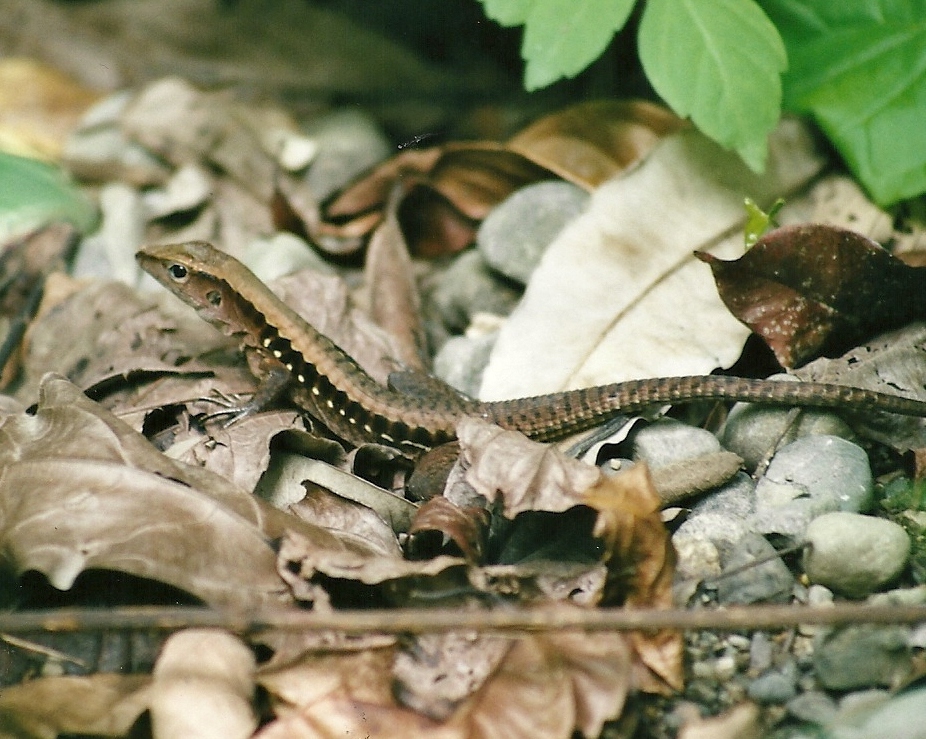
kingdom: Animalia
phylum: Chordata
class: Squamata
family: Teiidae
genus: Holcosus
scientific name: Holcosus leptophrys
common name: Delicate ameiva
